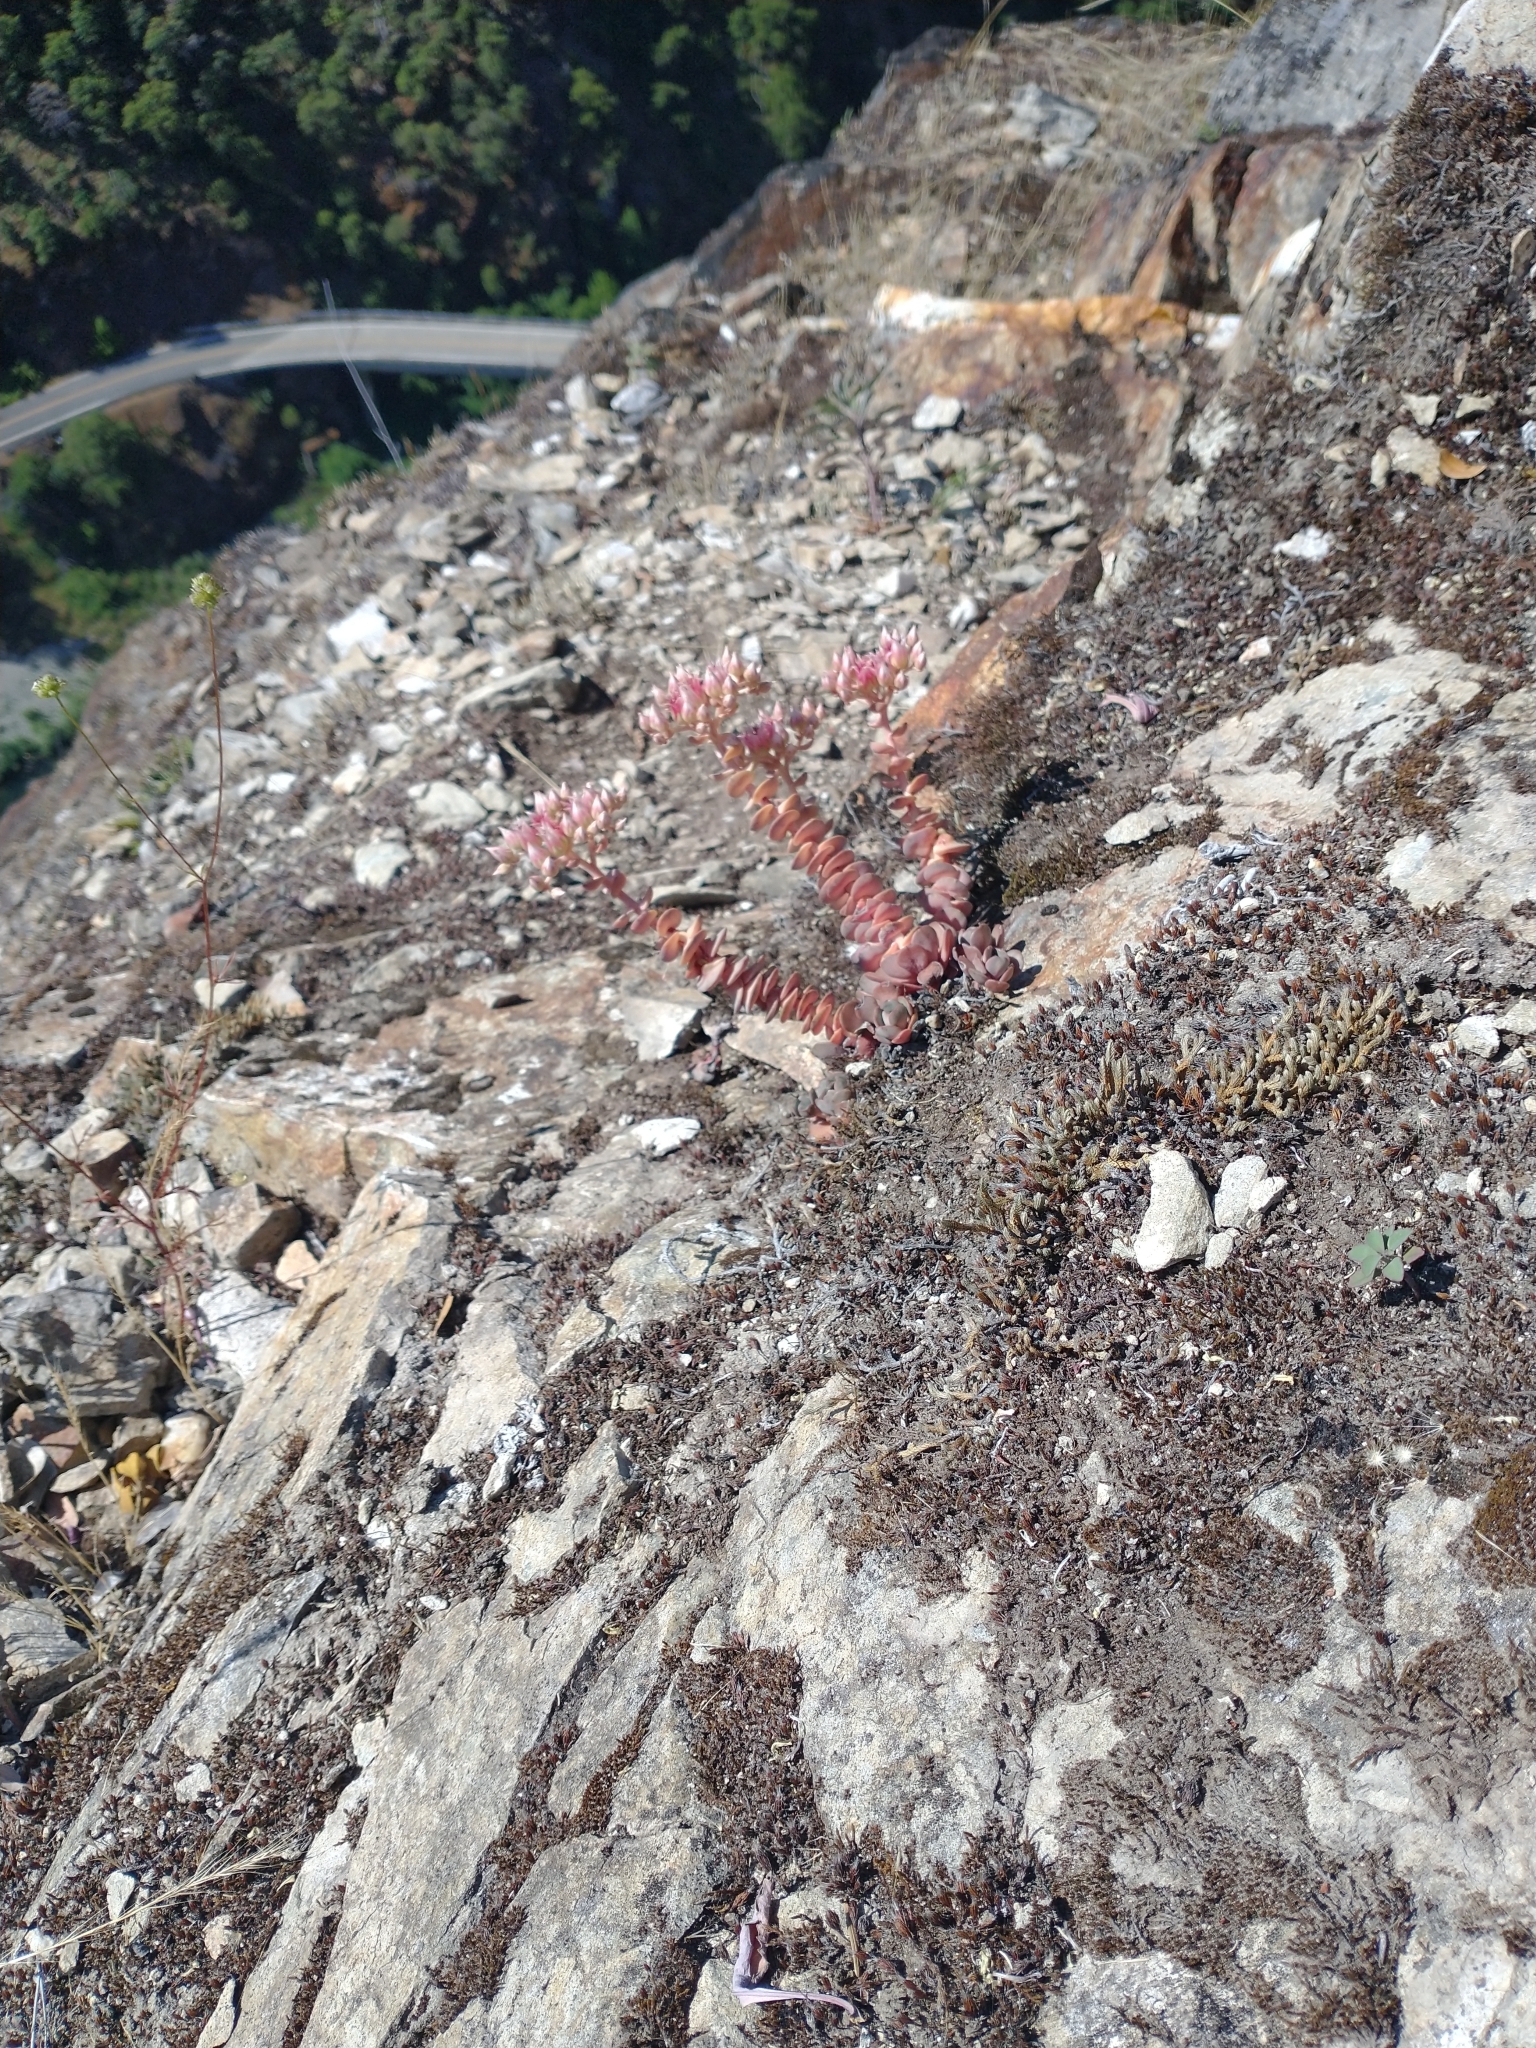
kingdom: Plantae
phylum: Tracheophyta
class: Magnoliopsida
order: Saxifragales
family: Crassulaceae
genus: Sedum
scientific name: Sedum laxum
